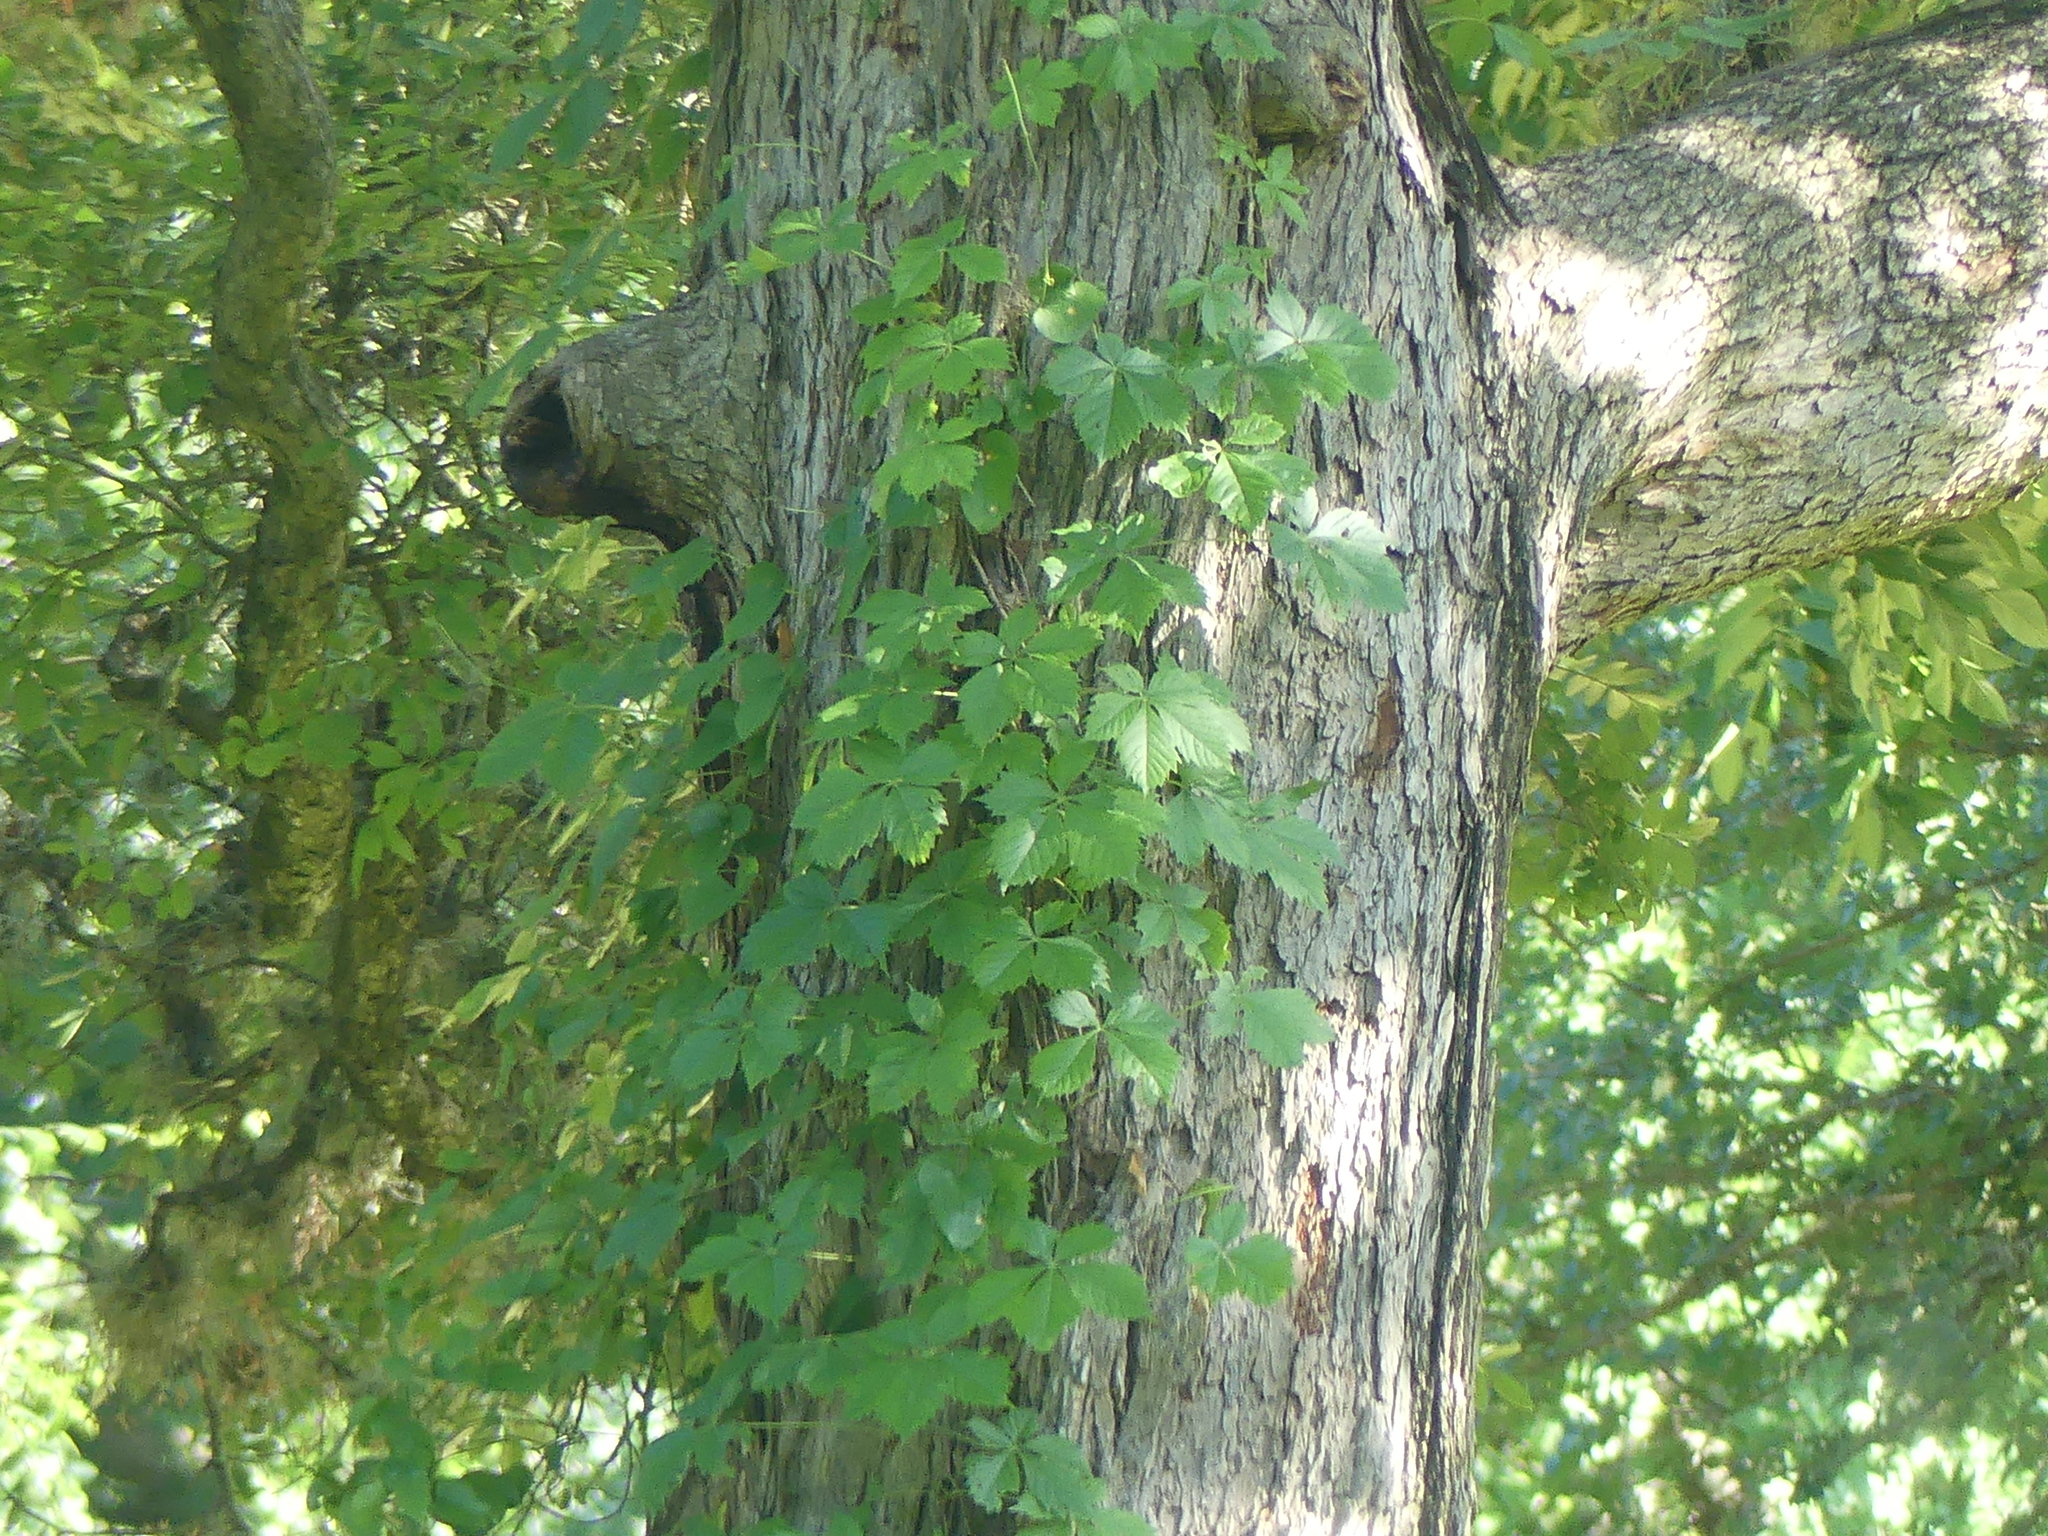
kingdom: Plantae
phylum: Tracheophyta
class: Magnoliopsida
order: Vitales
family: Vitaceae
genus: Parthenocissus
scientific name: Parthenocissus quinquefolia
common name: Virginia-creeper
